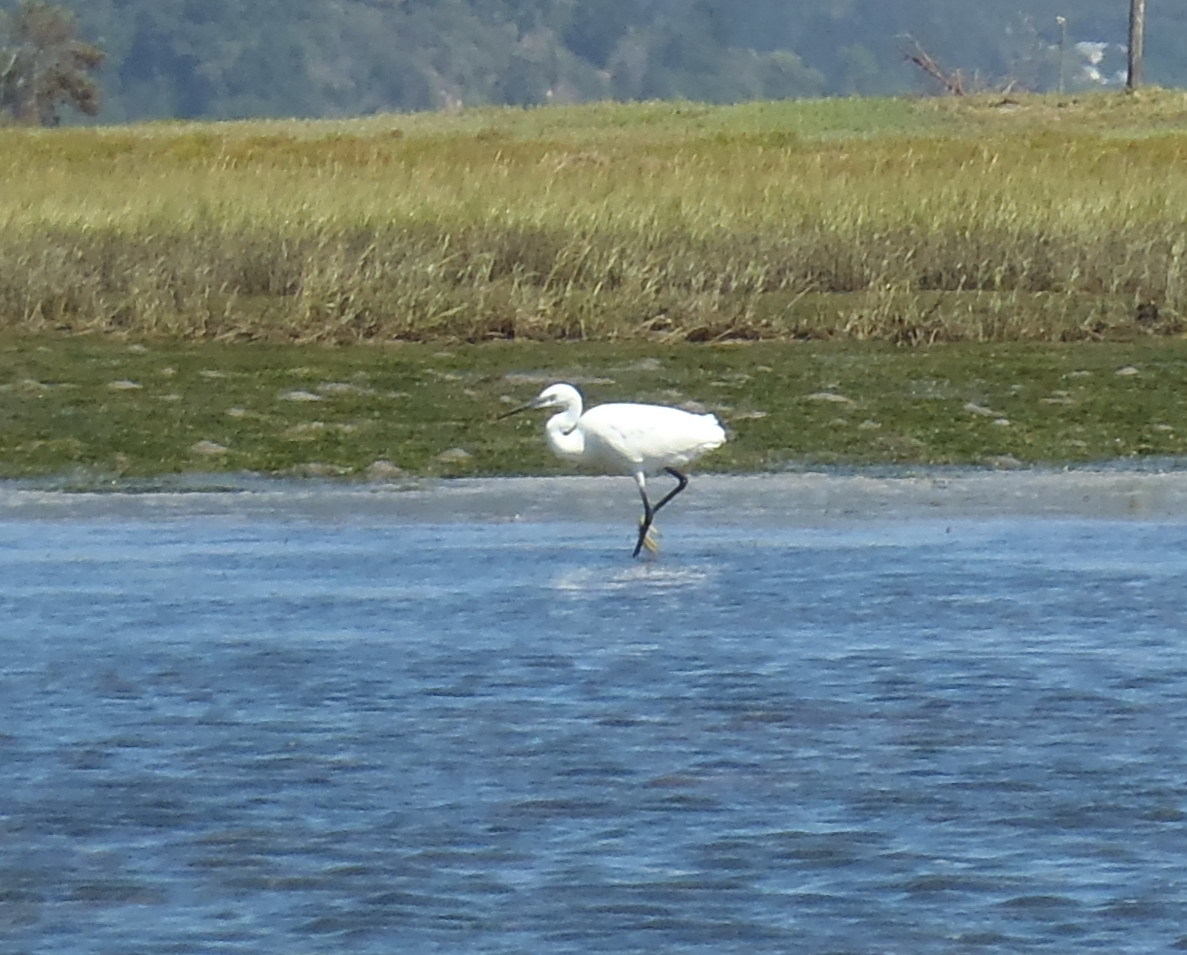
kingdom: Animalia
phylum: Chordata
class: Aves
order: Pelecaniformes
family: Ardeidae
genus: Egretta
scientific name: Egretta garzetta
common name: Little egret
